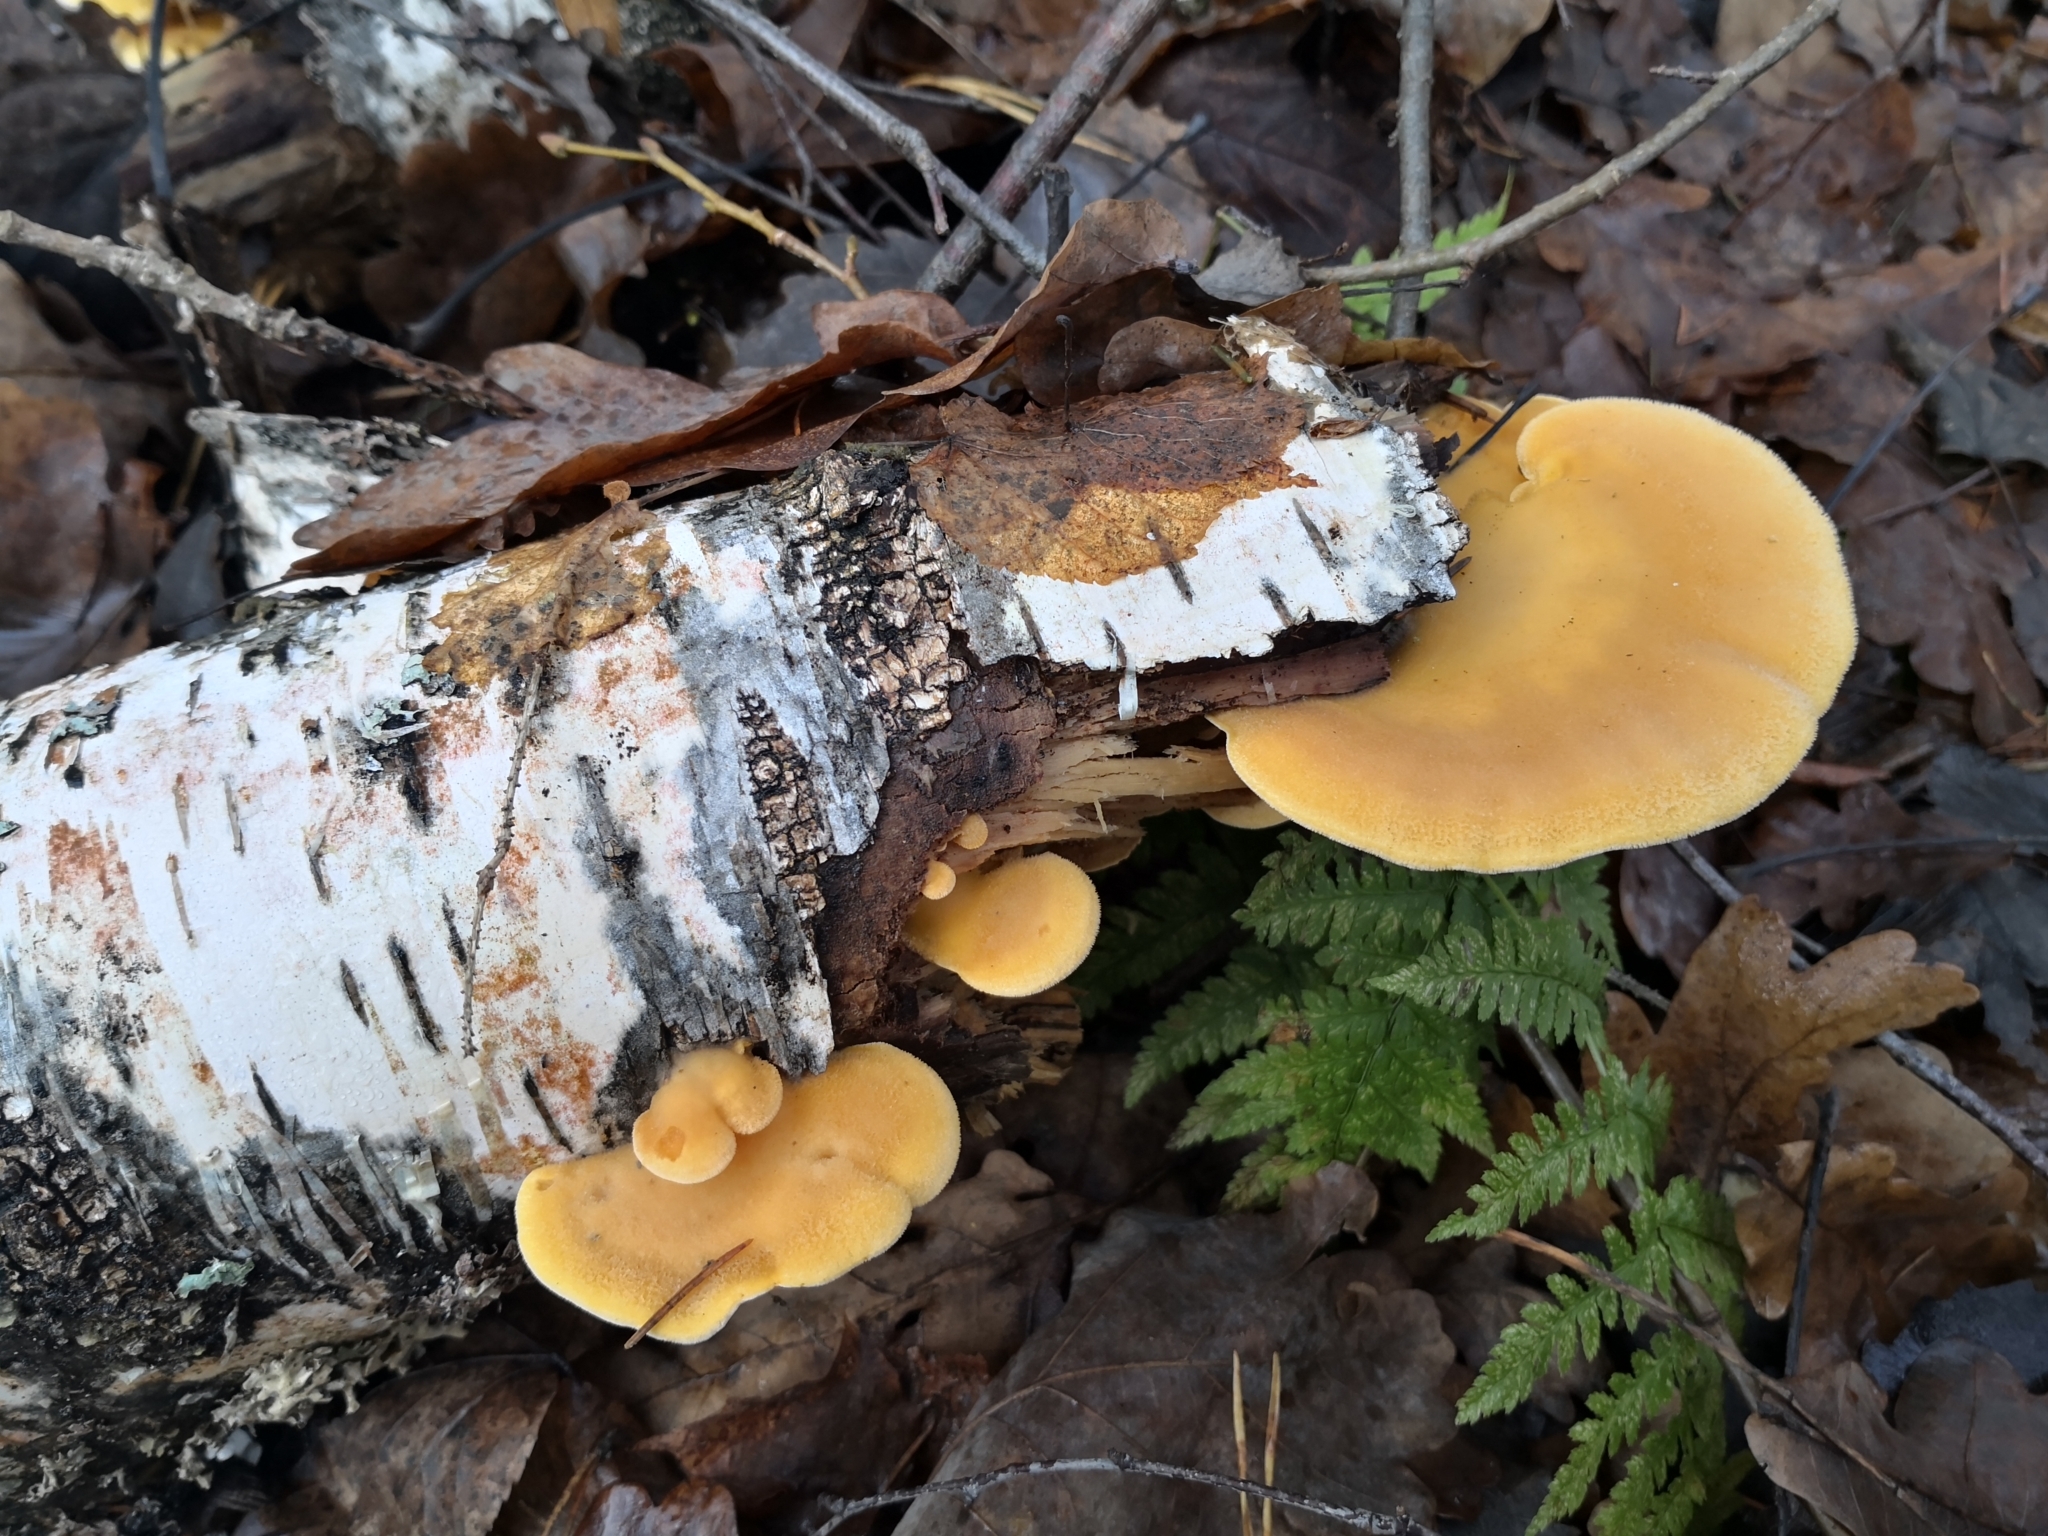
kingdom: Fungi
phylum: Basidiomycota
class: Agaricomycetes
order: Agaricales
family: Phyllotopsidaceae
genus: Phyllotopsis
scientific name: Phyllotopsis nidulans
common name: Orange mock oyster
